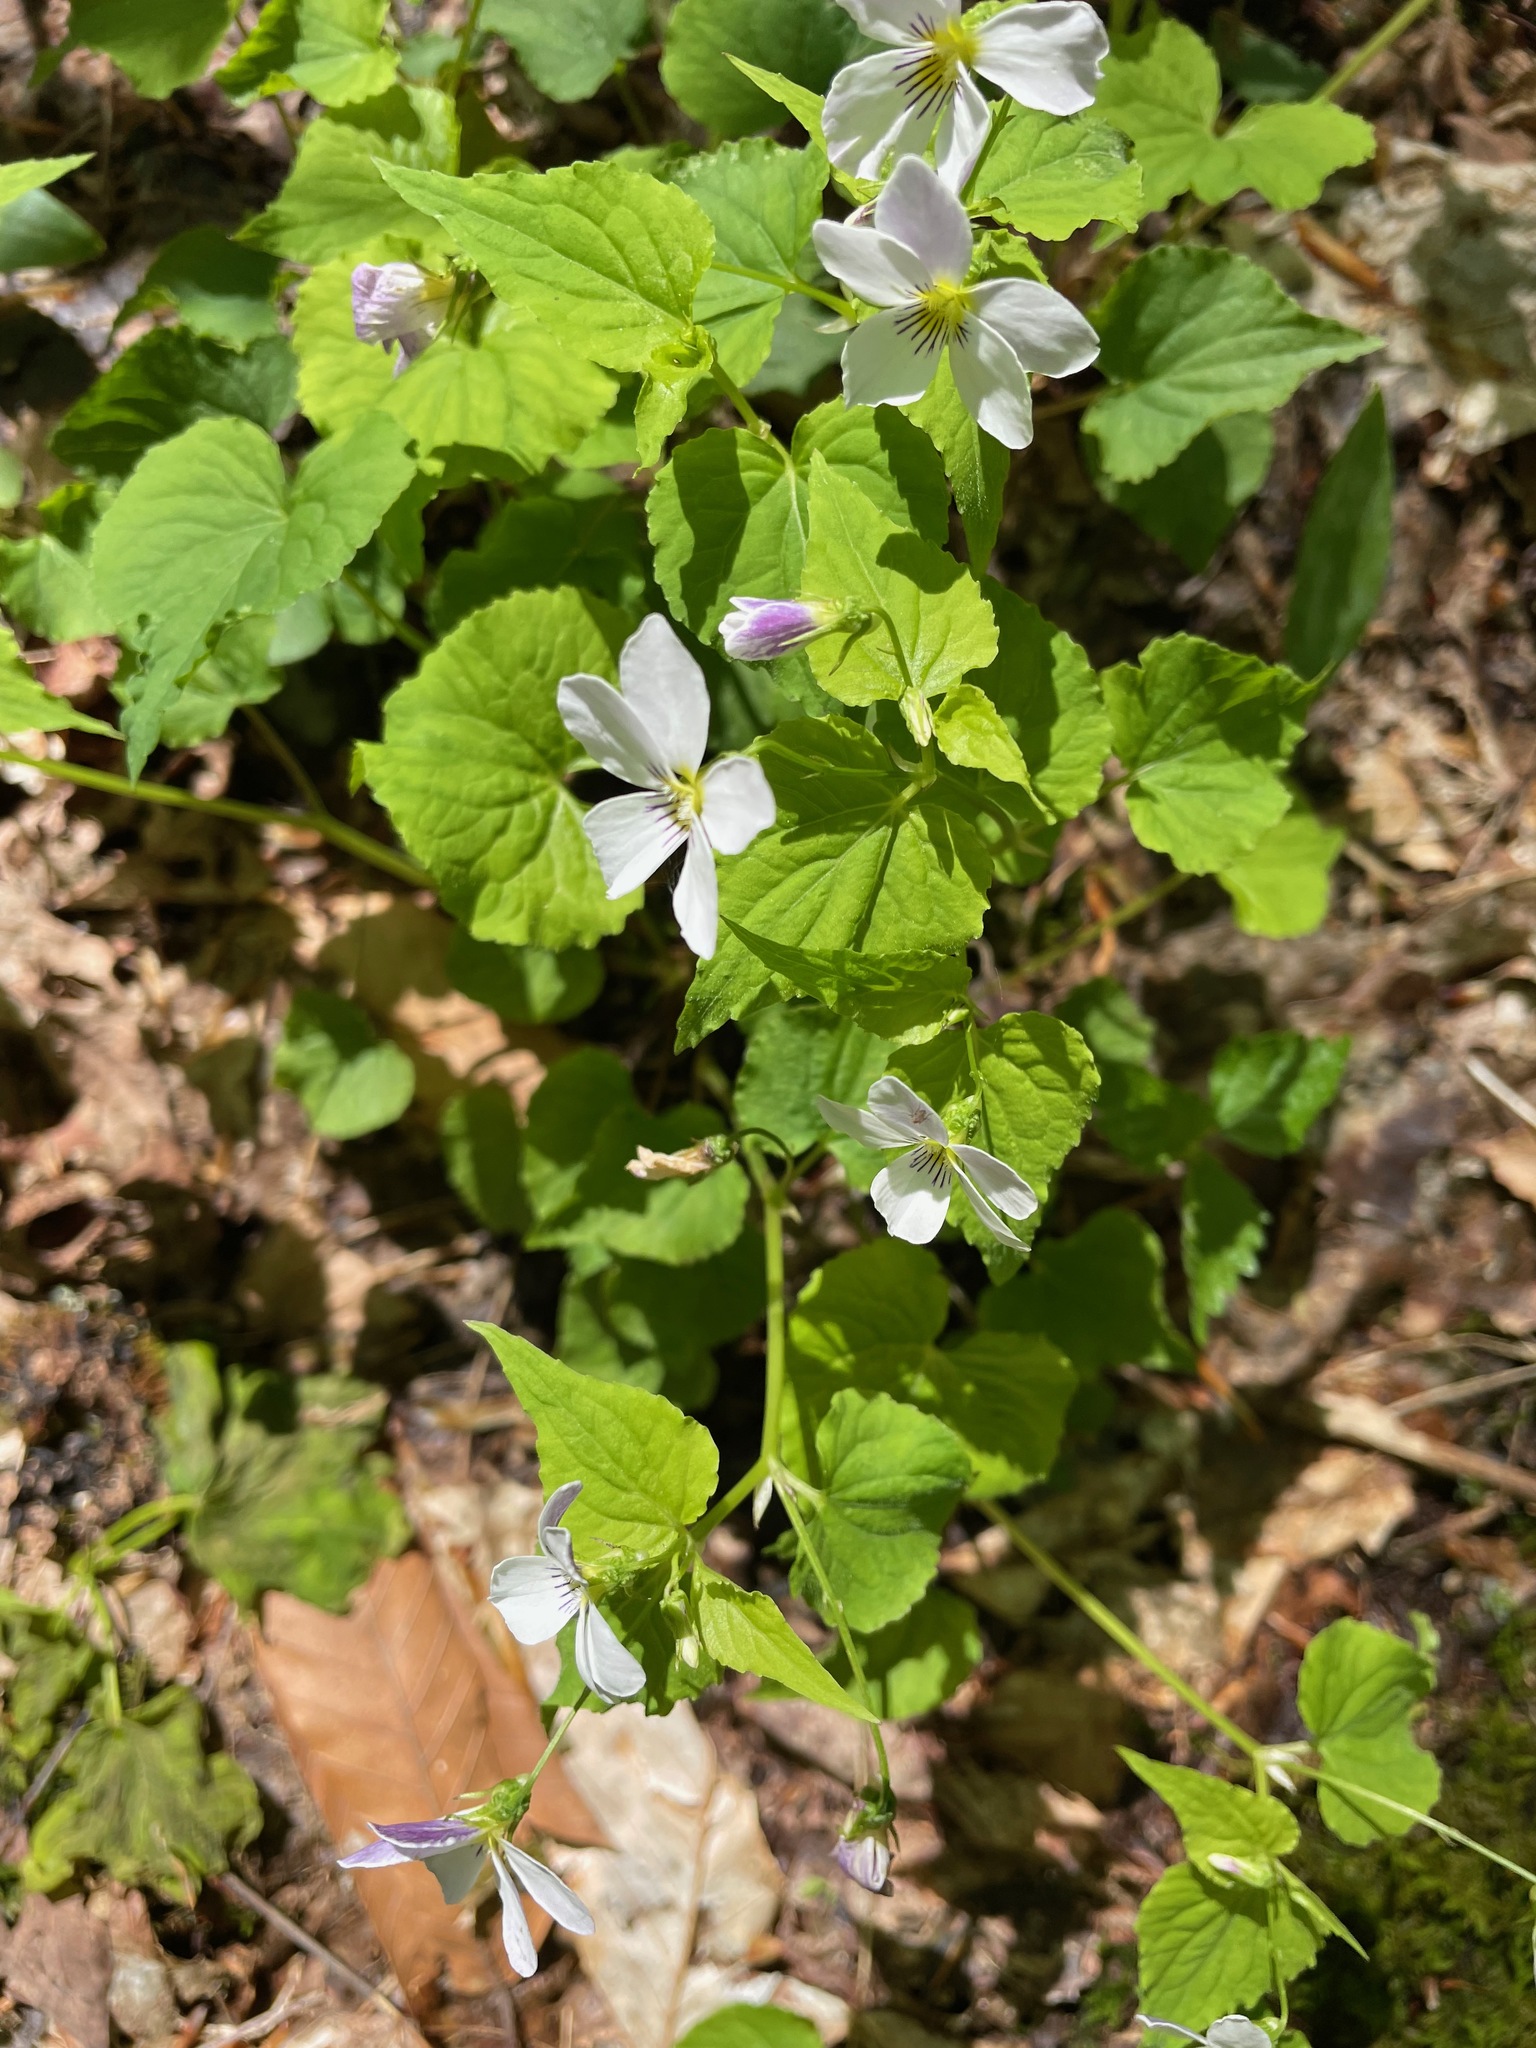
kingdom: Plantae
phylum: Tracheophyta
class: Magnoliopsida
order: Malpighiales
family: Violaceae
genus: Viola
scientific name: Viola canadensis
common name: Canada violet
